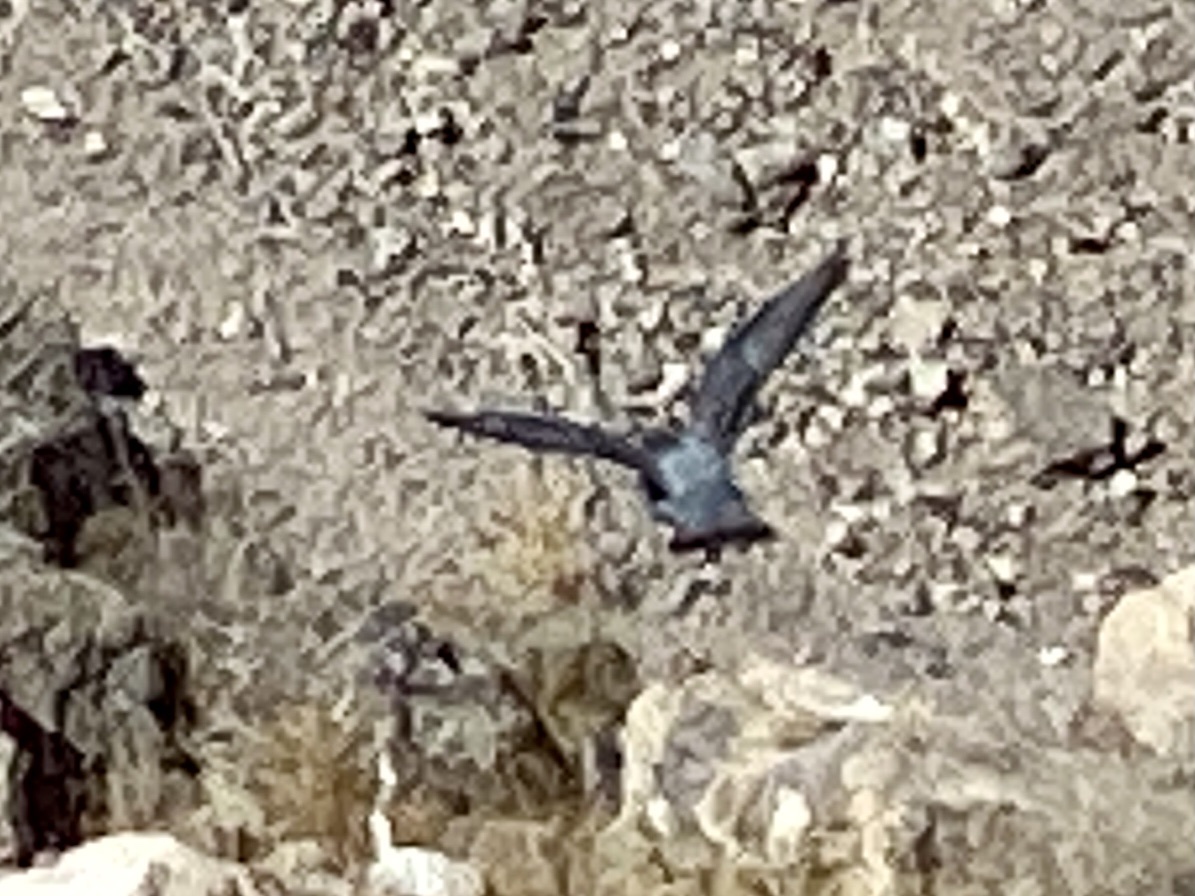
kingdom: Animalia
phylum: Chordata
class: Aves
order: Columbiformes
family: Columbidae
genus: Columba
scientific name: Columba livia
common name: Rock pigeon
